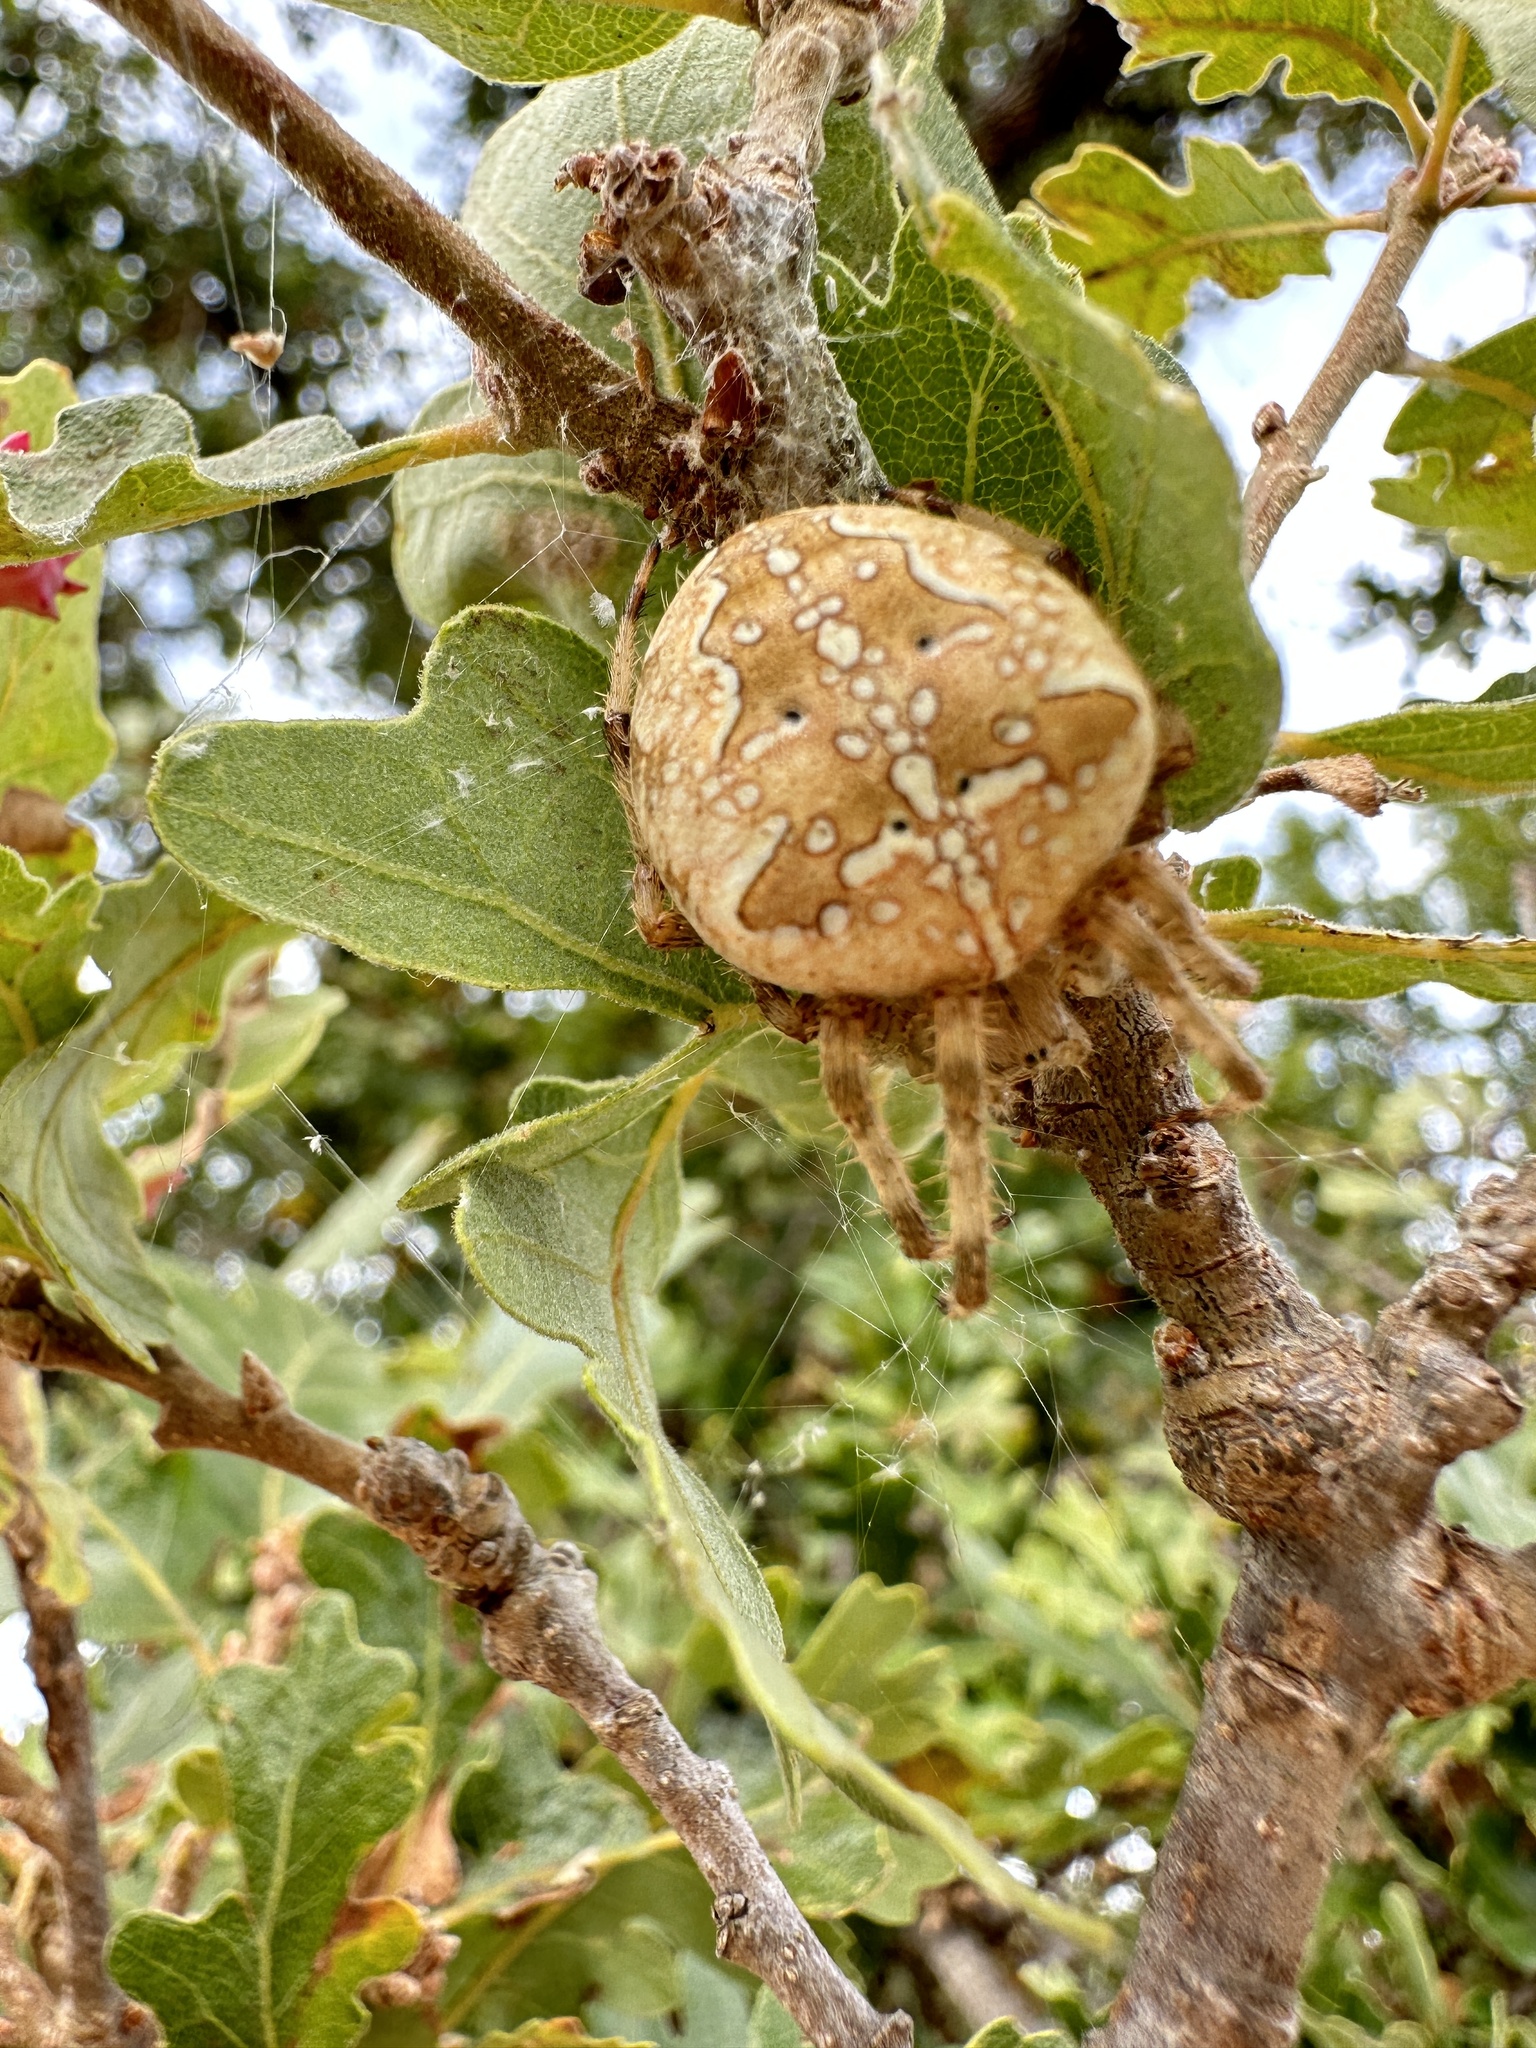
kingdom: Animalia
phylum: Arthropoda
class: Arachnida
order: Araneae
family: Araneidae
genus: Araneus
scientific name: Araneus diadematus
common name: Cross orbweaver
